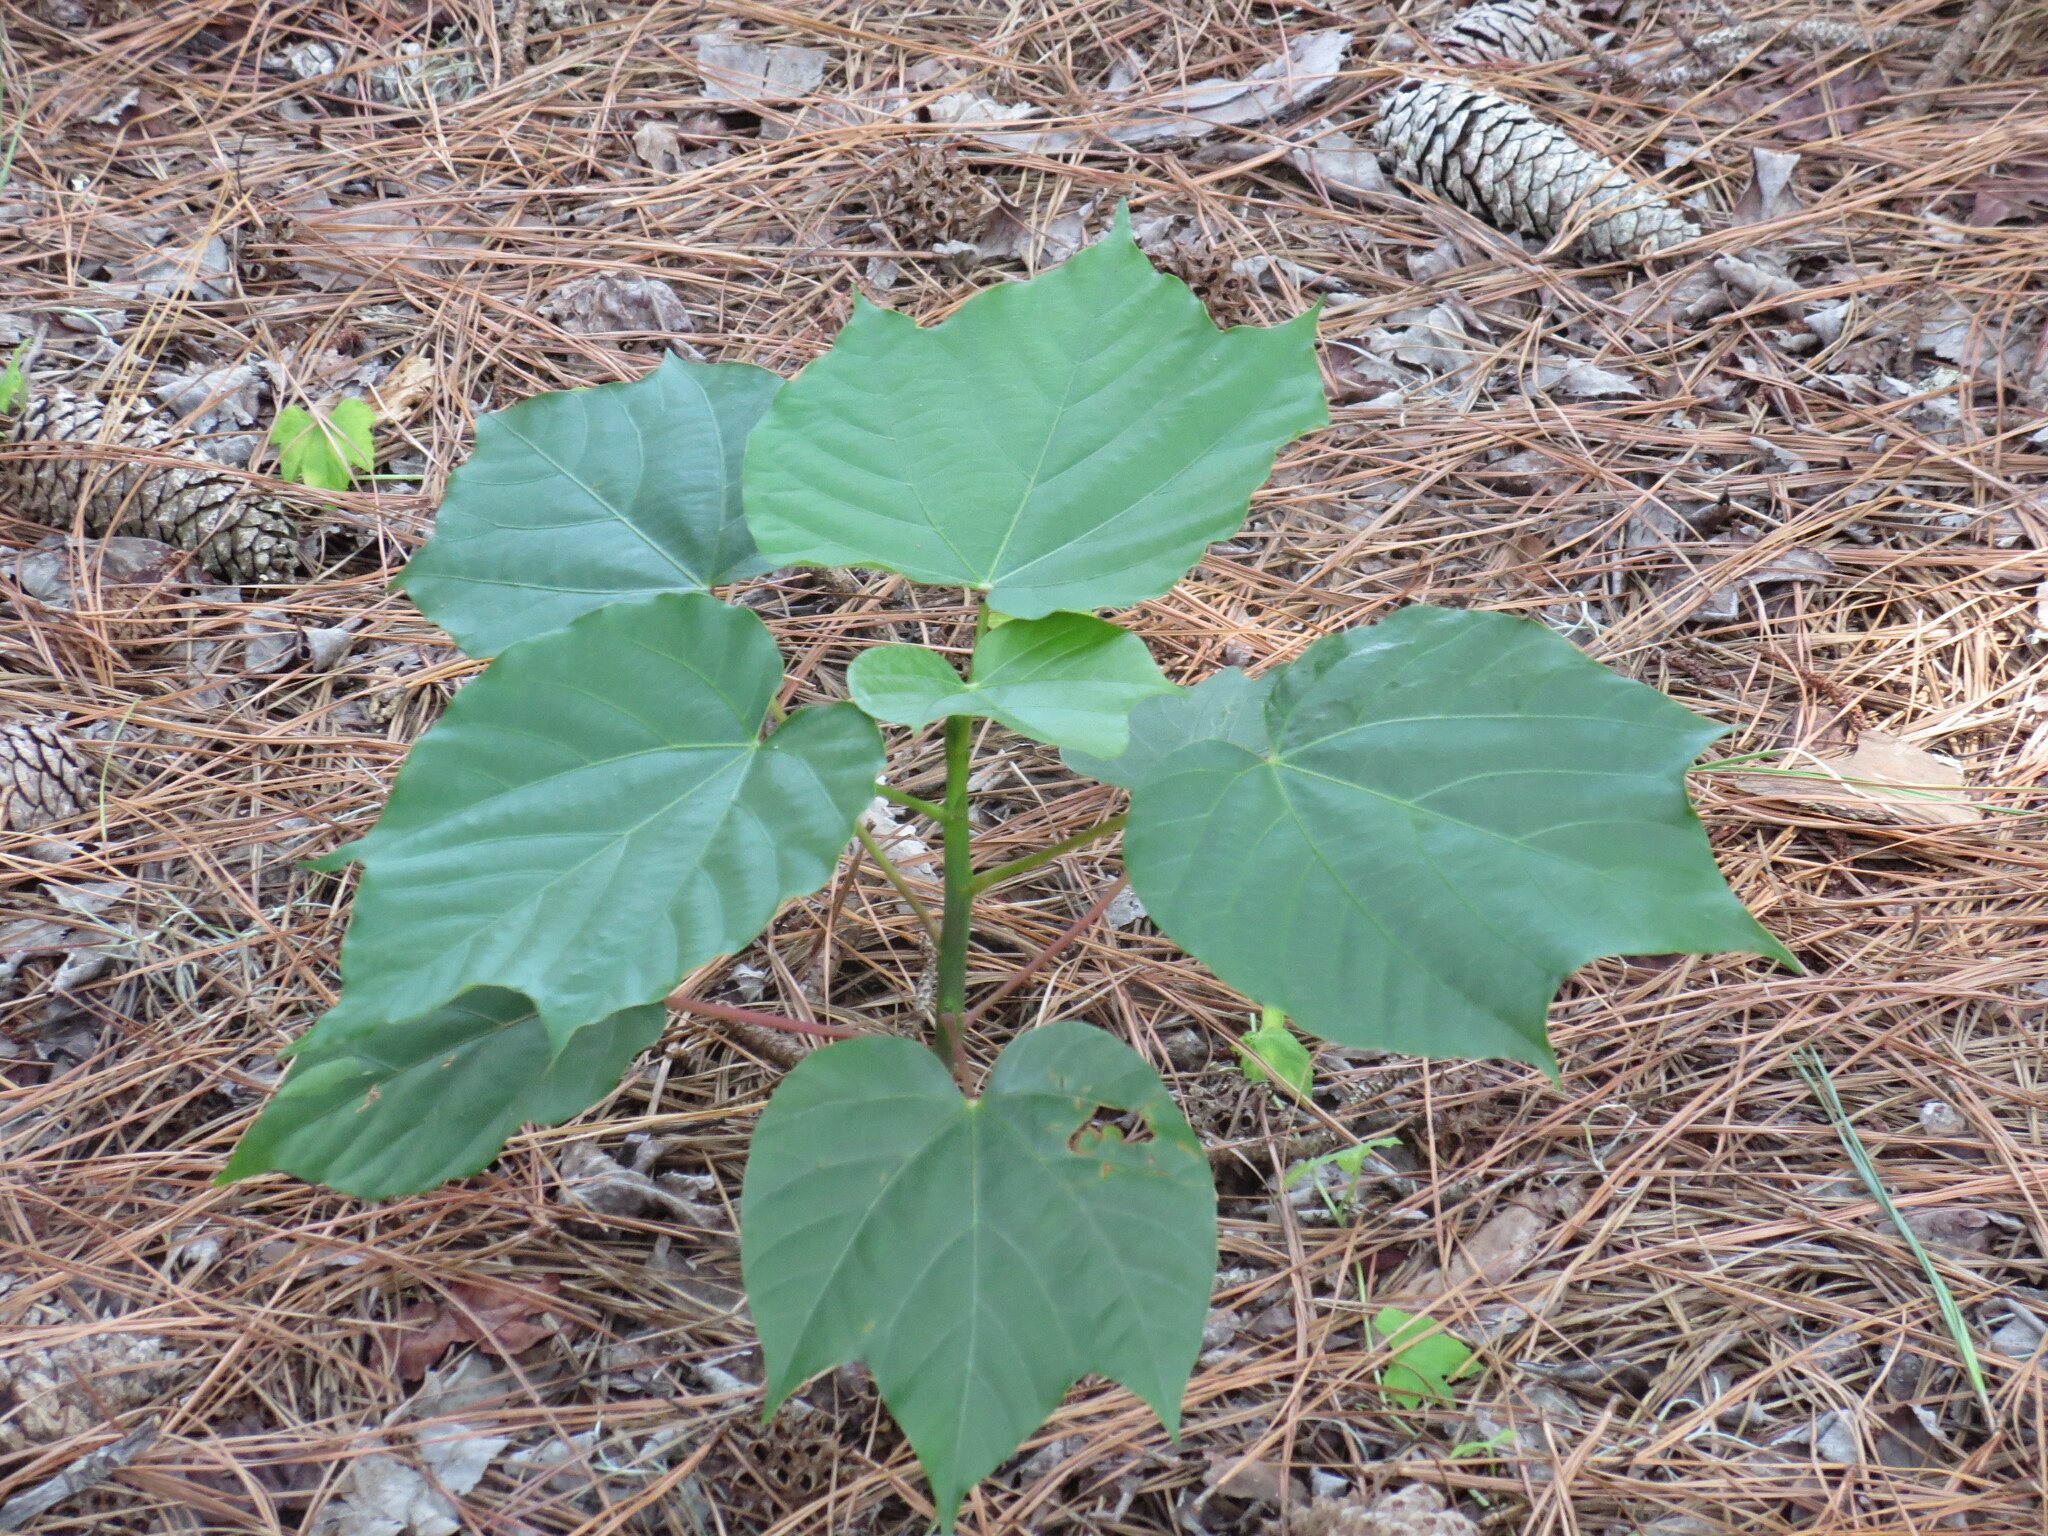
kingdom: Plantae
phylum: Tracheophyta
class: Magnoliopsida
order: Malpighiales
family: Euphorbiaceae
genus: Vernicia
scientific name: Vernicia fordii
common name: Tungoil tree
